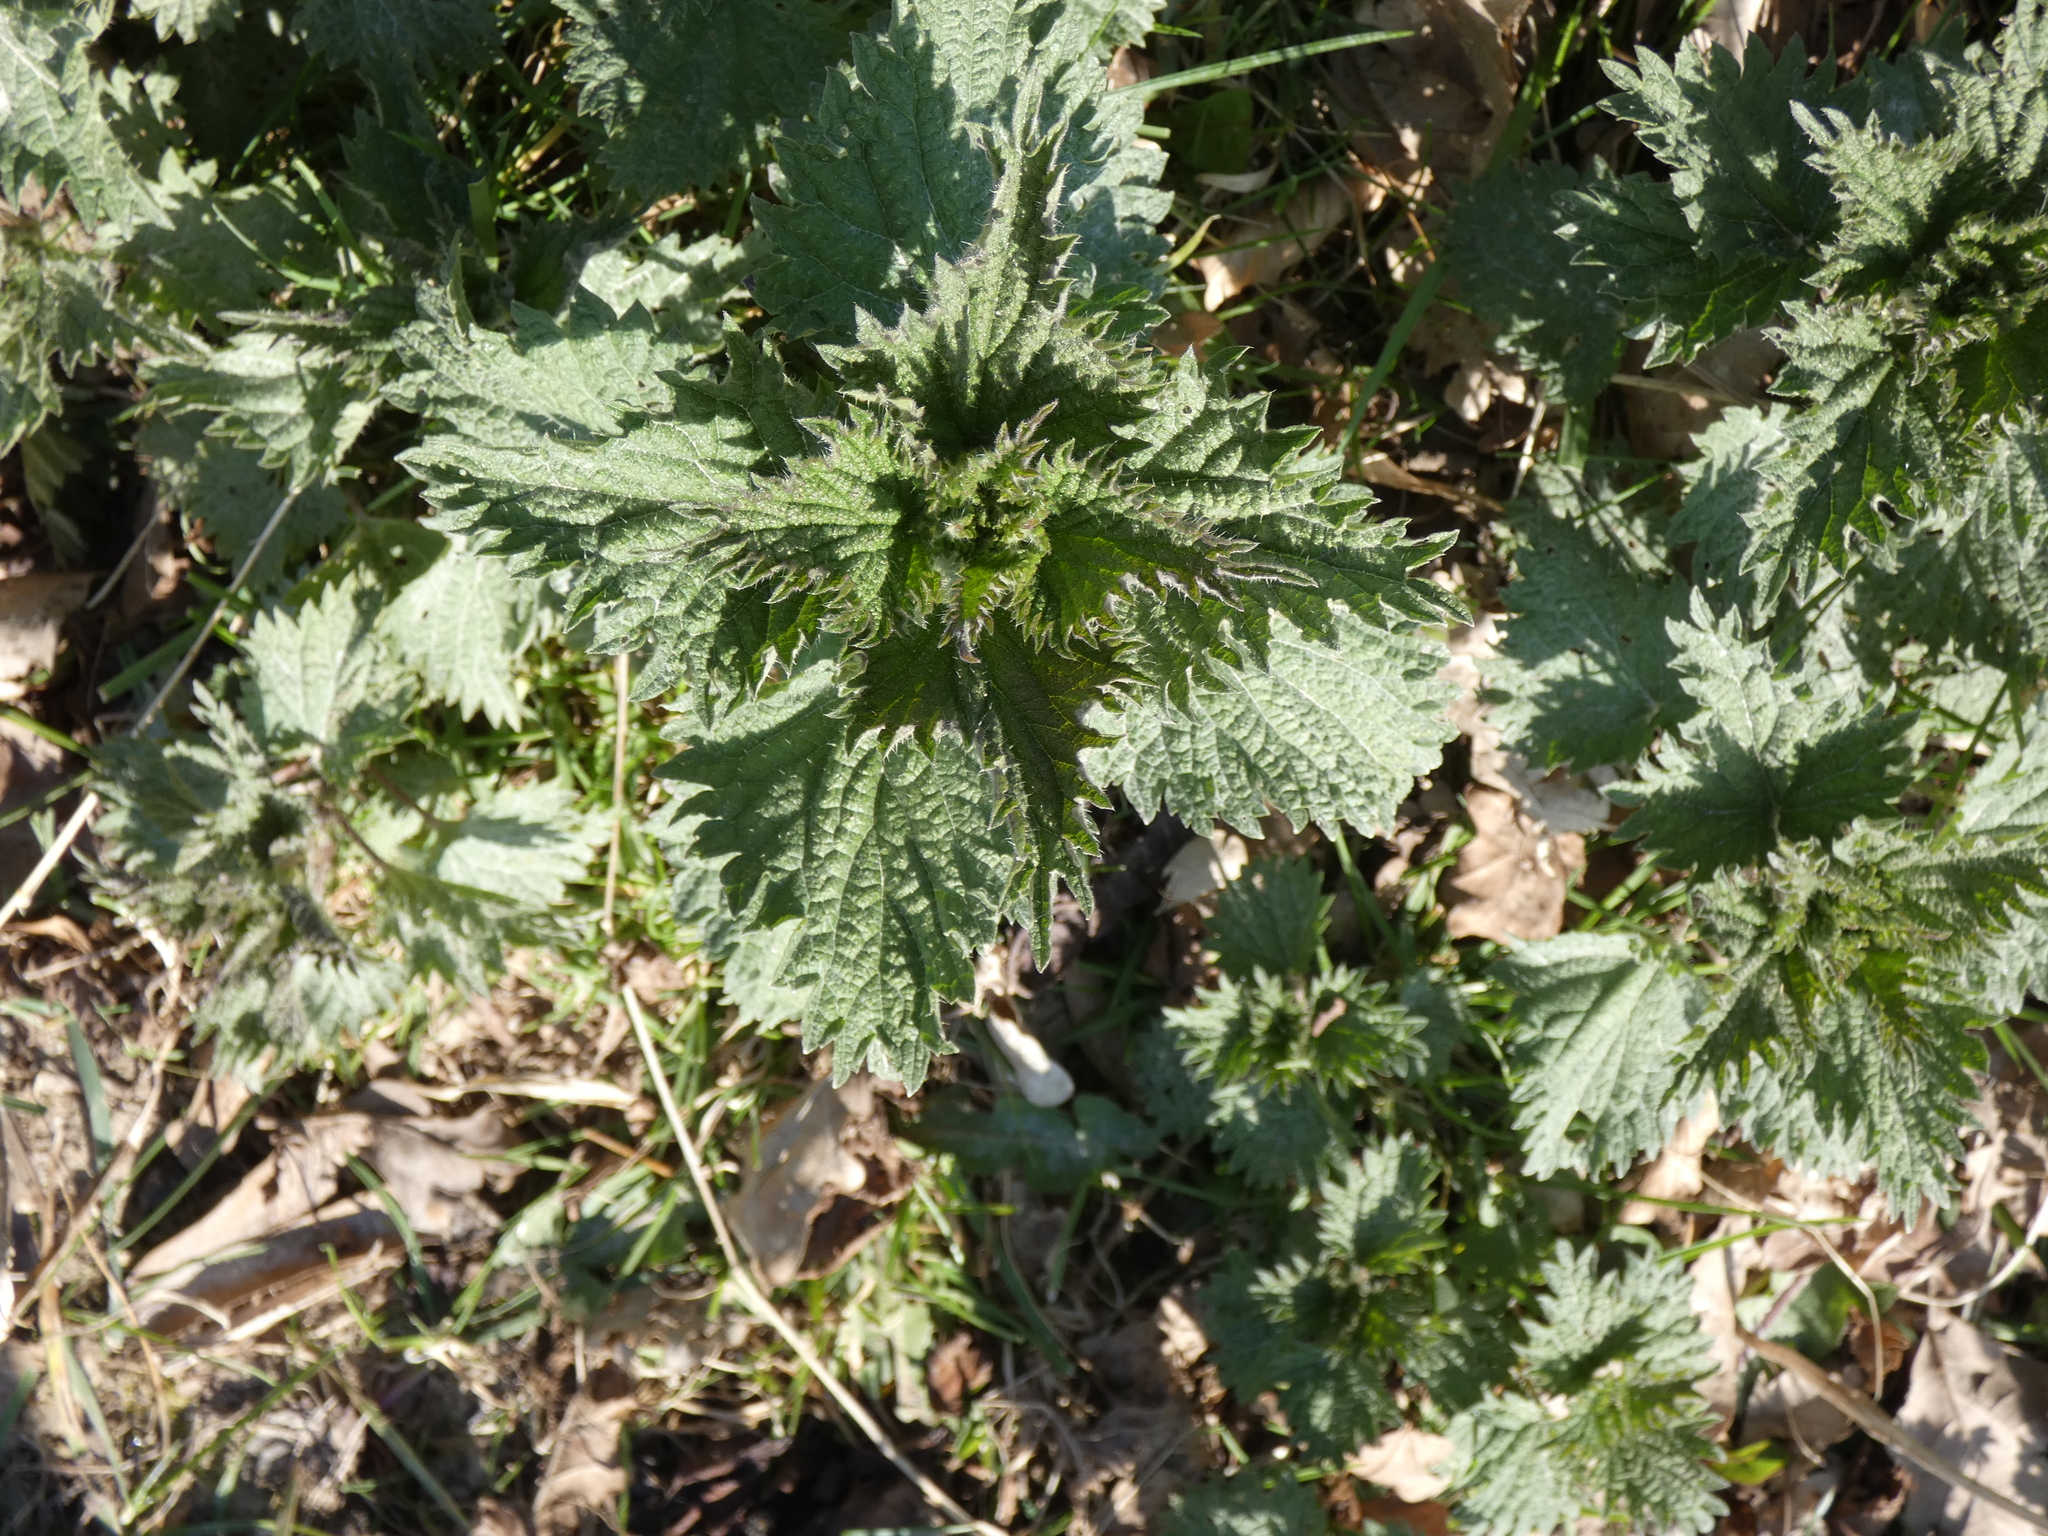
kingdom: Plantae
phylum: Tracheophyta
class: Magnoliopsida
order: Rosales
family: Urticaceae
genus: Urtica
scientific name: Urtica dioica
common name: Common nettle
